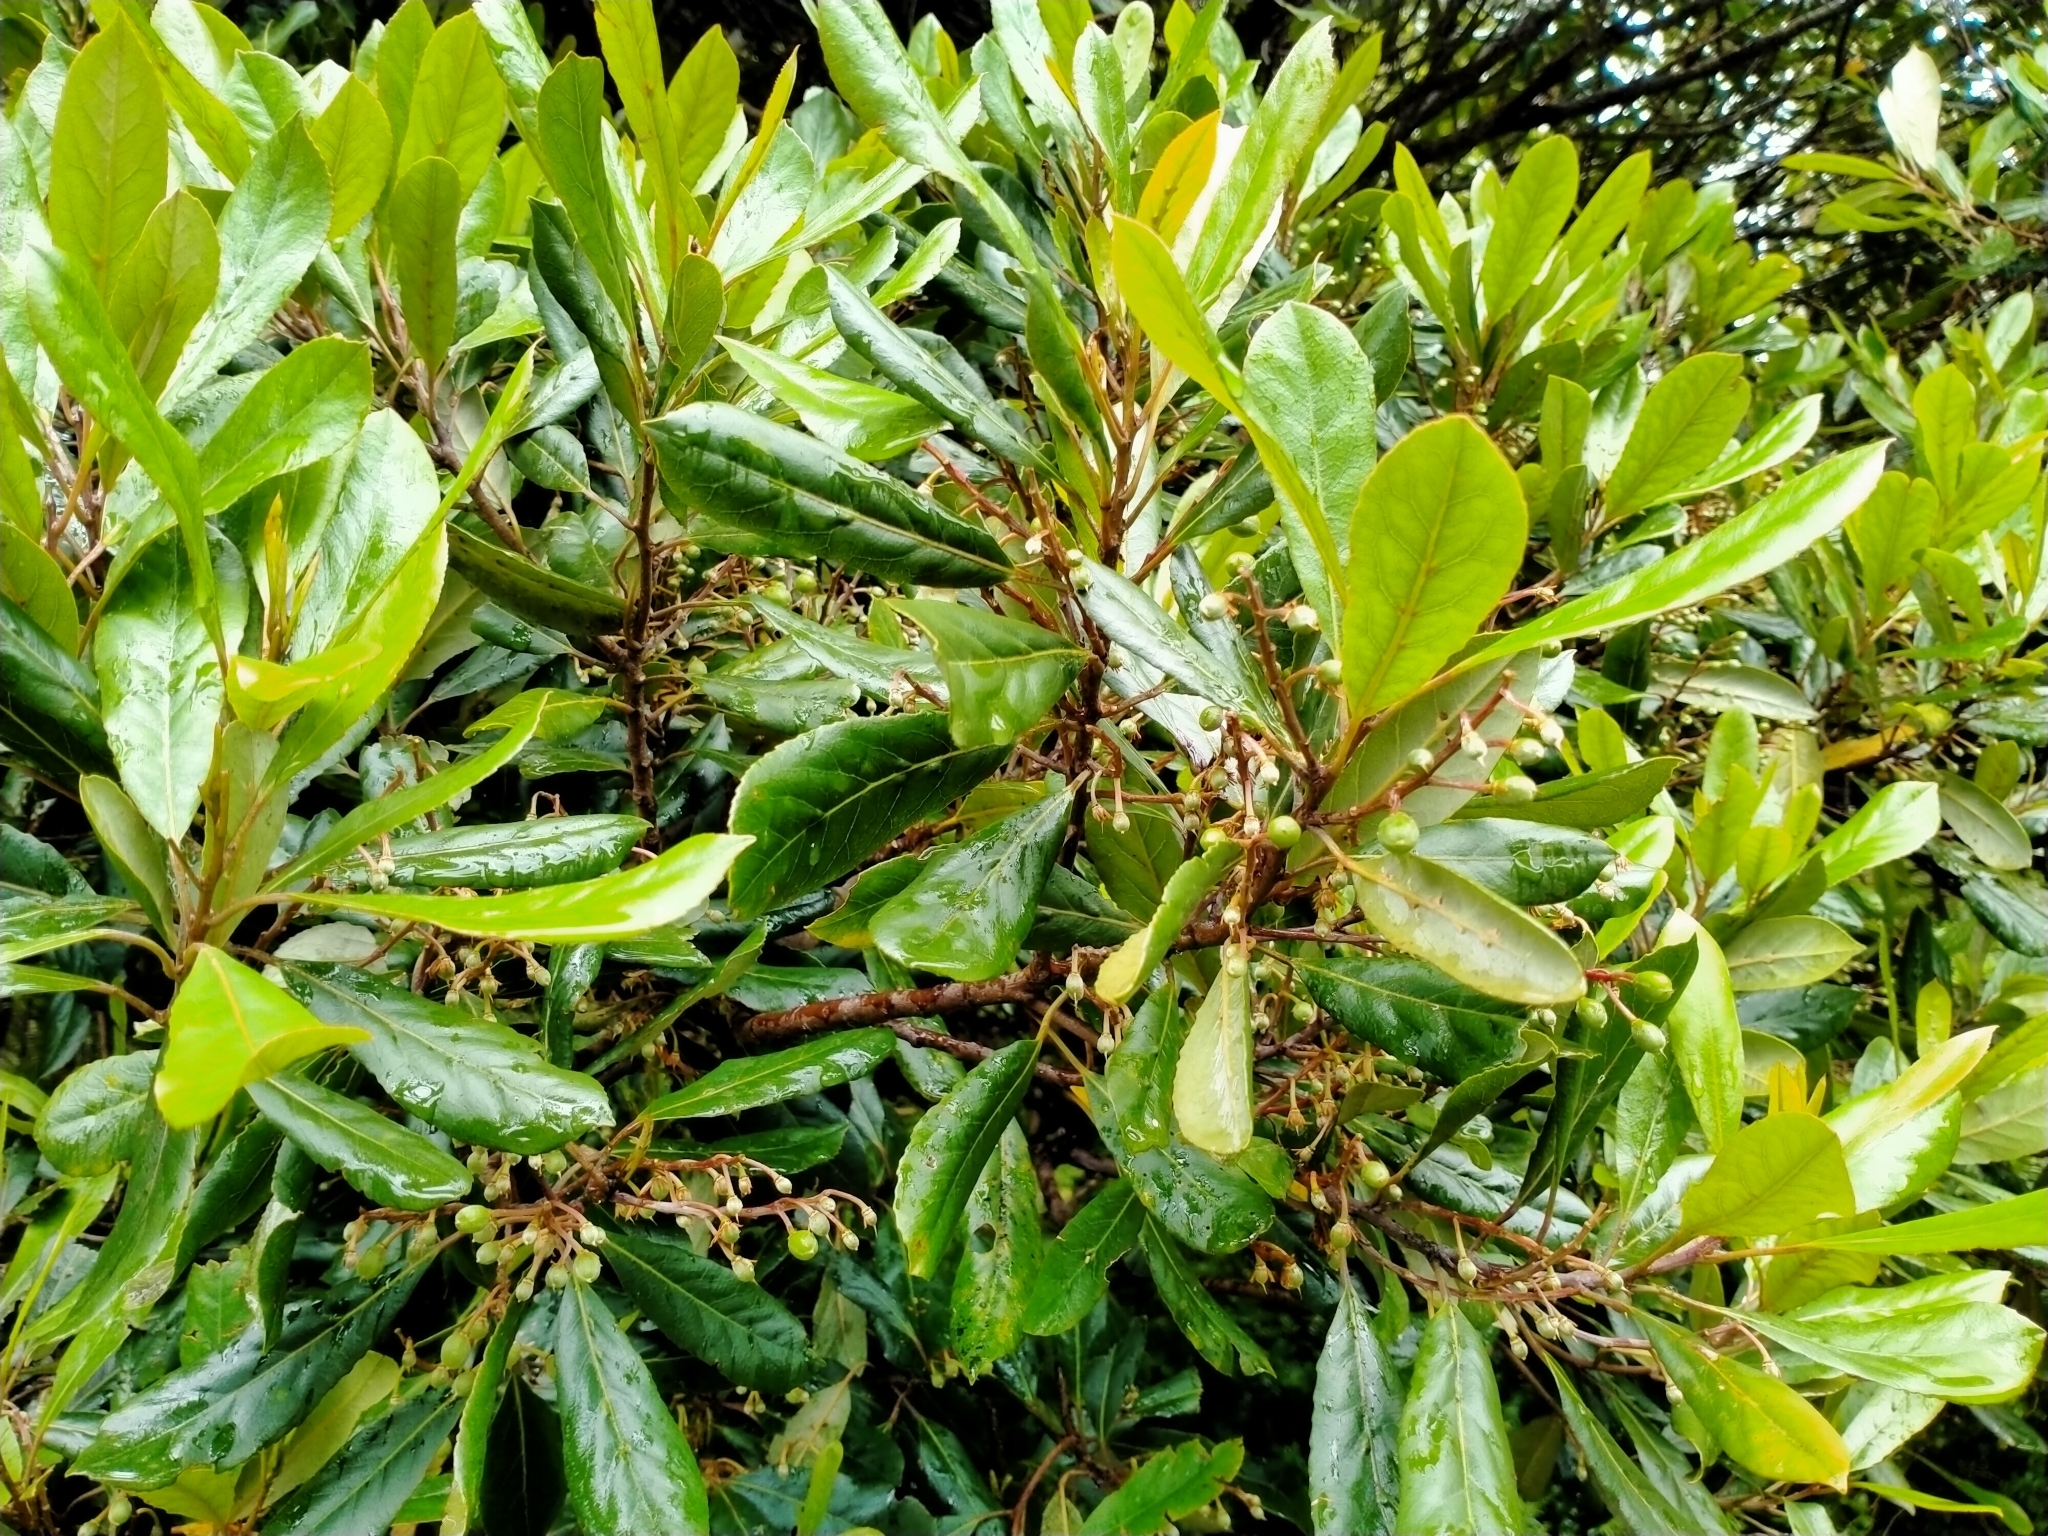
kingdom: Plantae
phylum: Tracheophyta
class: Magnoliopsida
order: Oxalidales
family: Elaeocarpaceae
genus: Elaeocarpus
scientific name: Elaeocarpus dentatus
